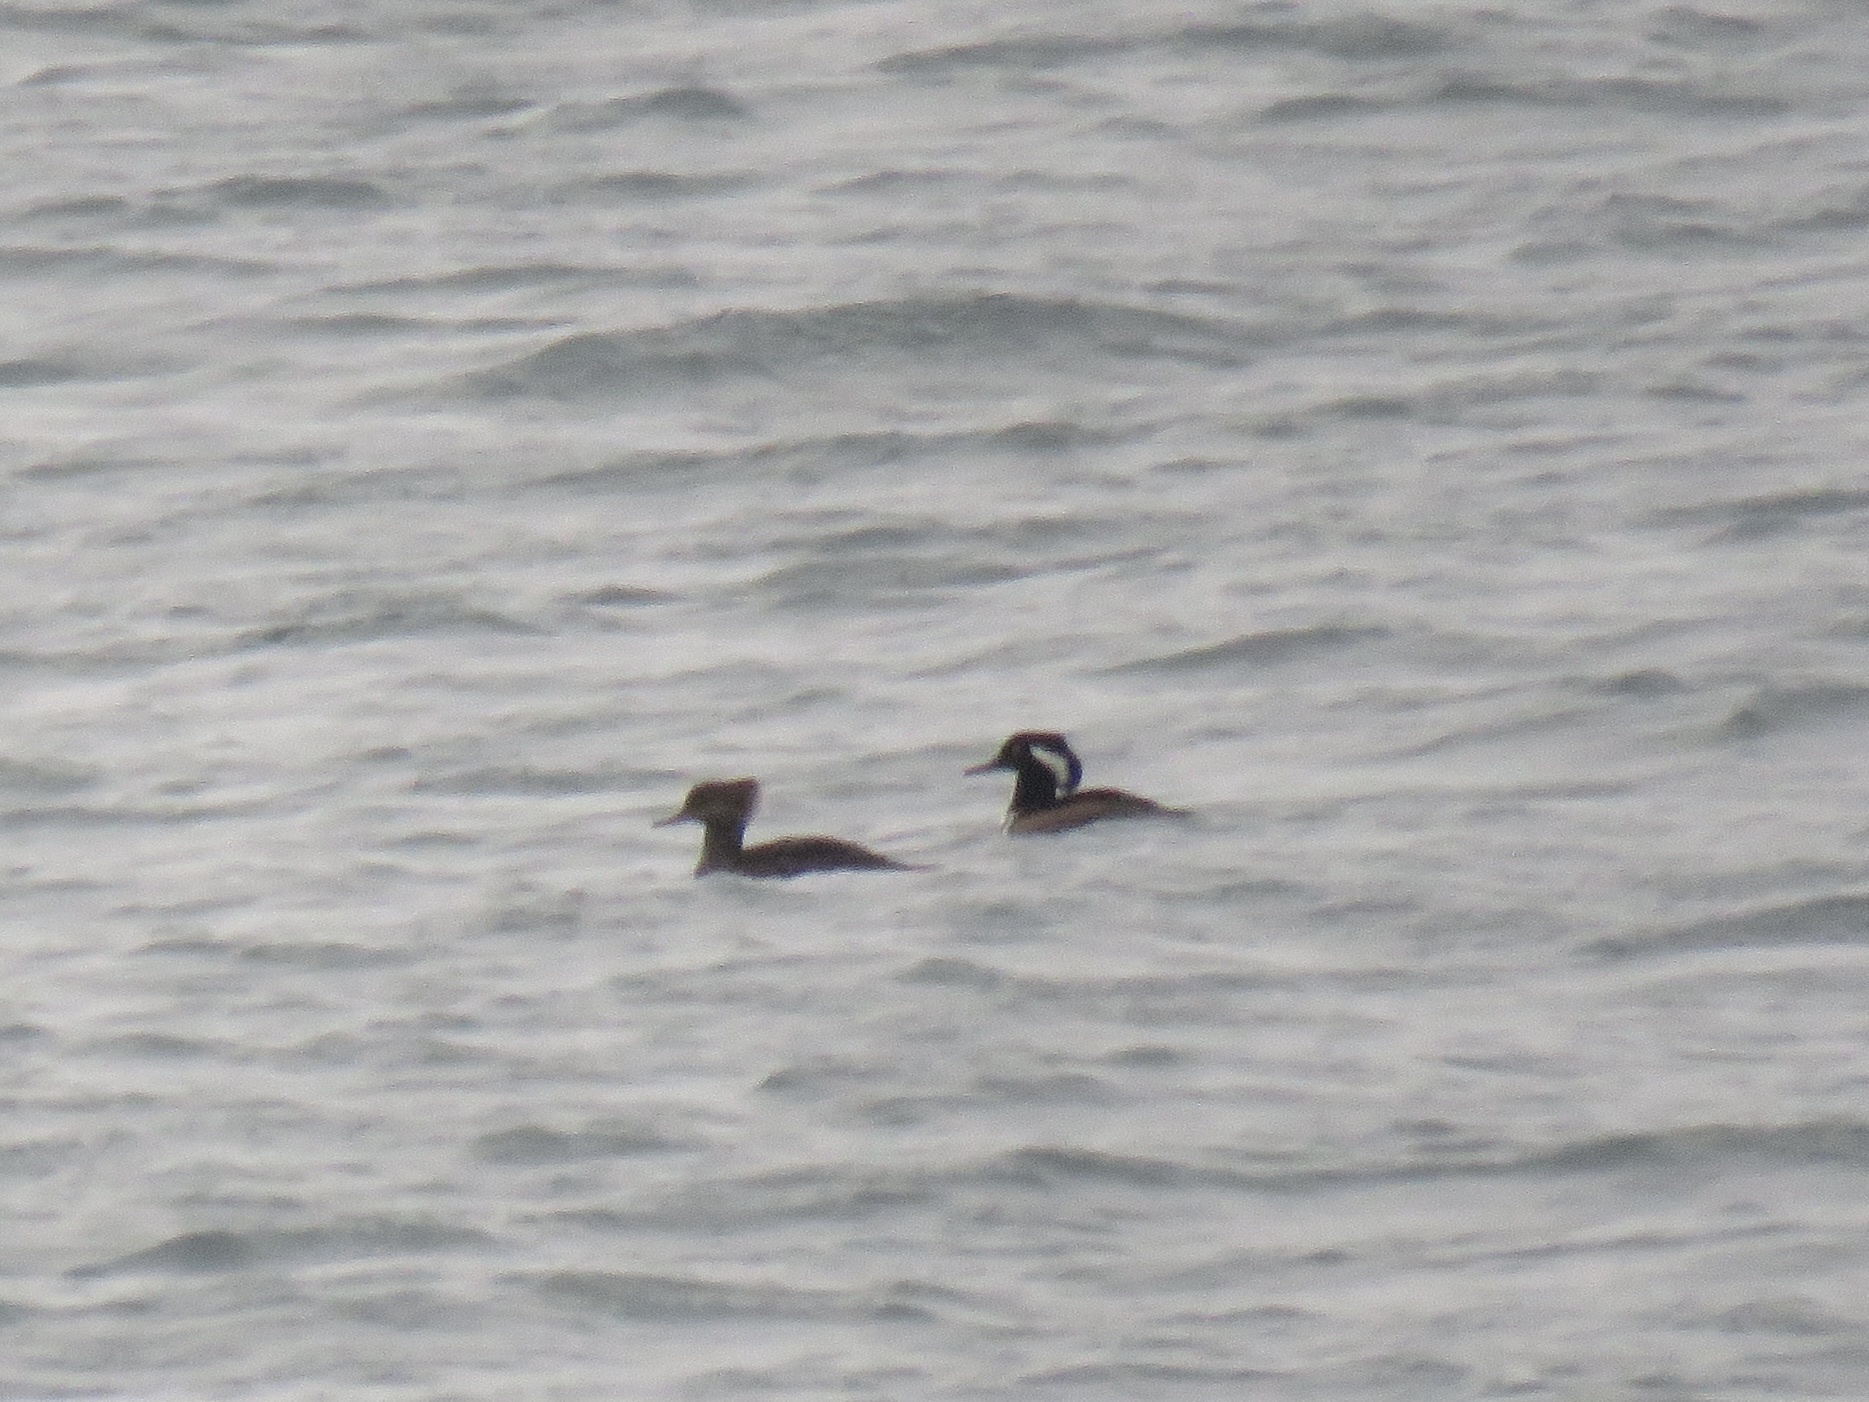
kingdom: Animalia
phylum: Chordata
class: Aves
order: Anseriformes
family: Anatidae
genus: Lophodytes
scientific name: Lophodytes cucullatus
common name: Hooded merganser
